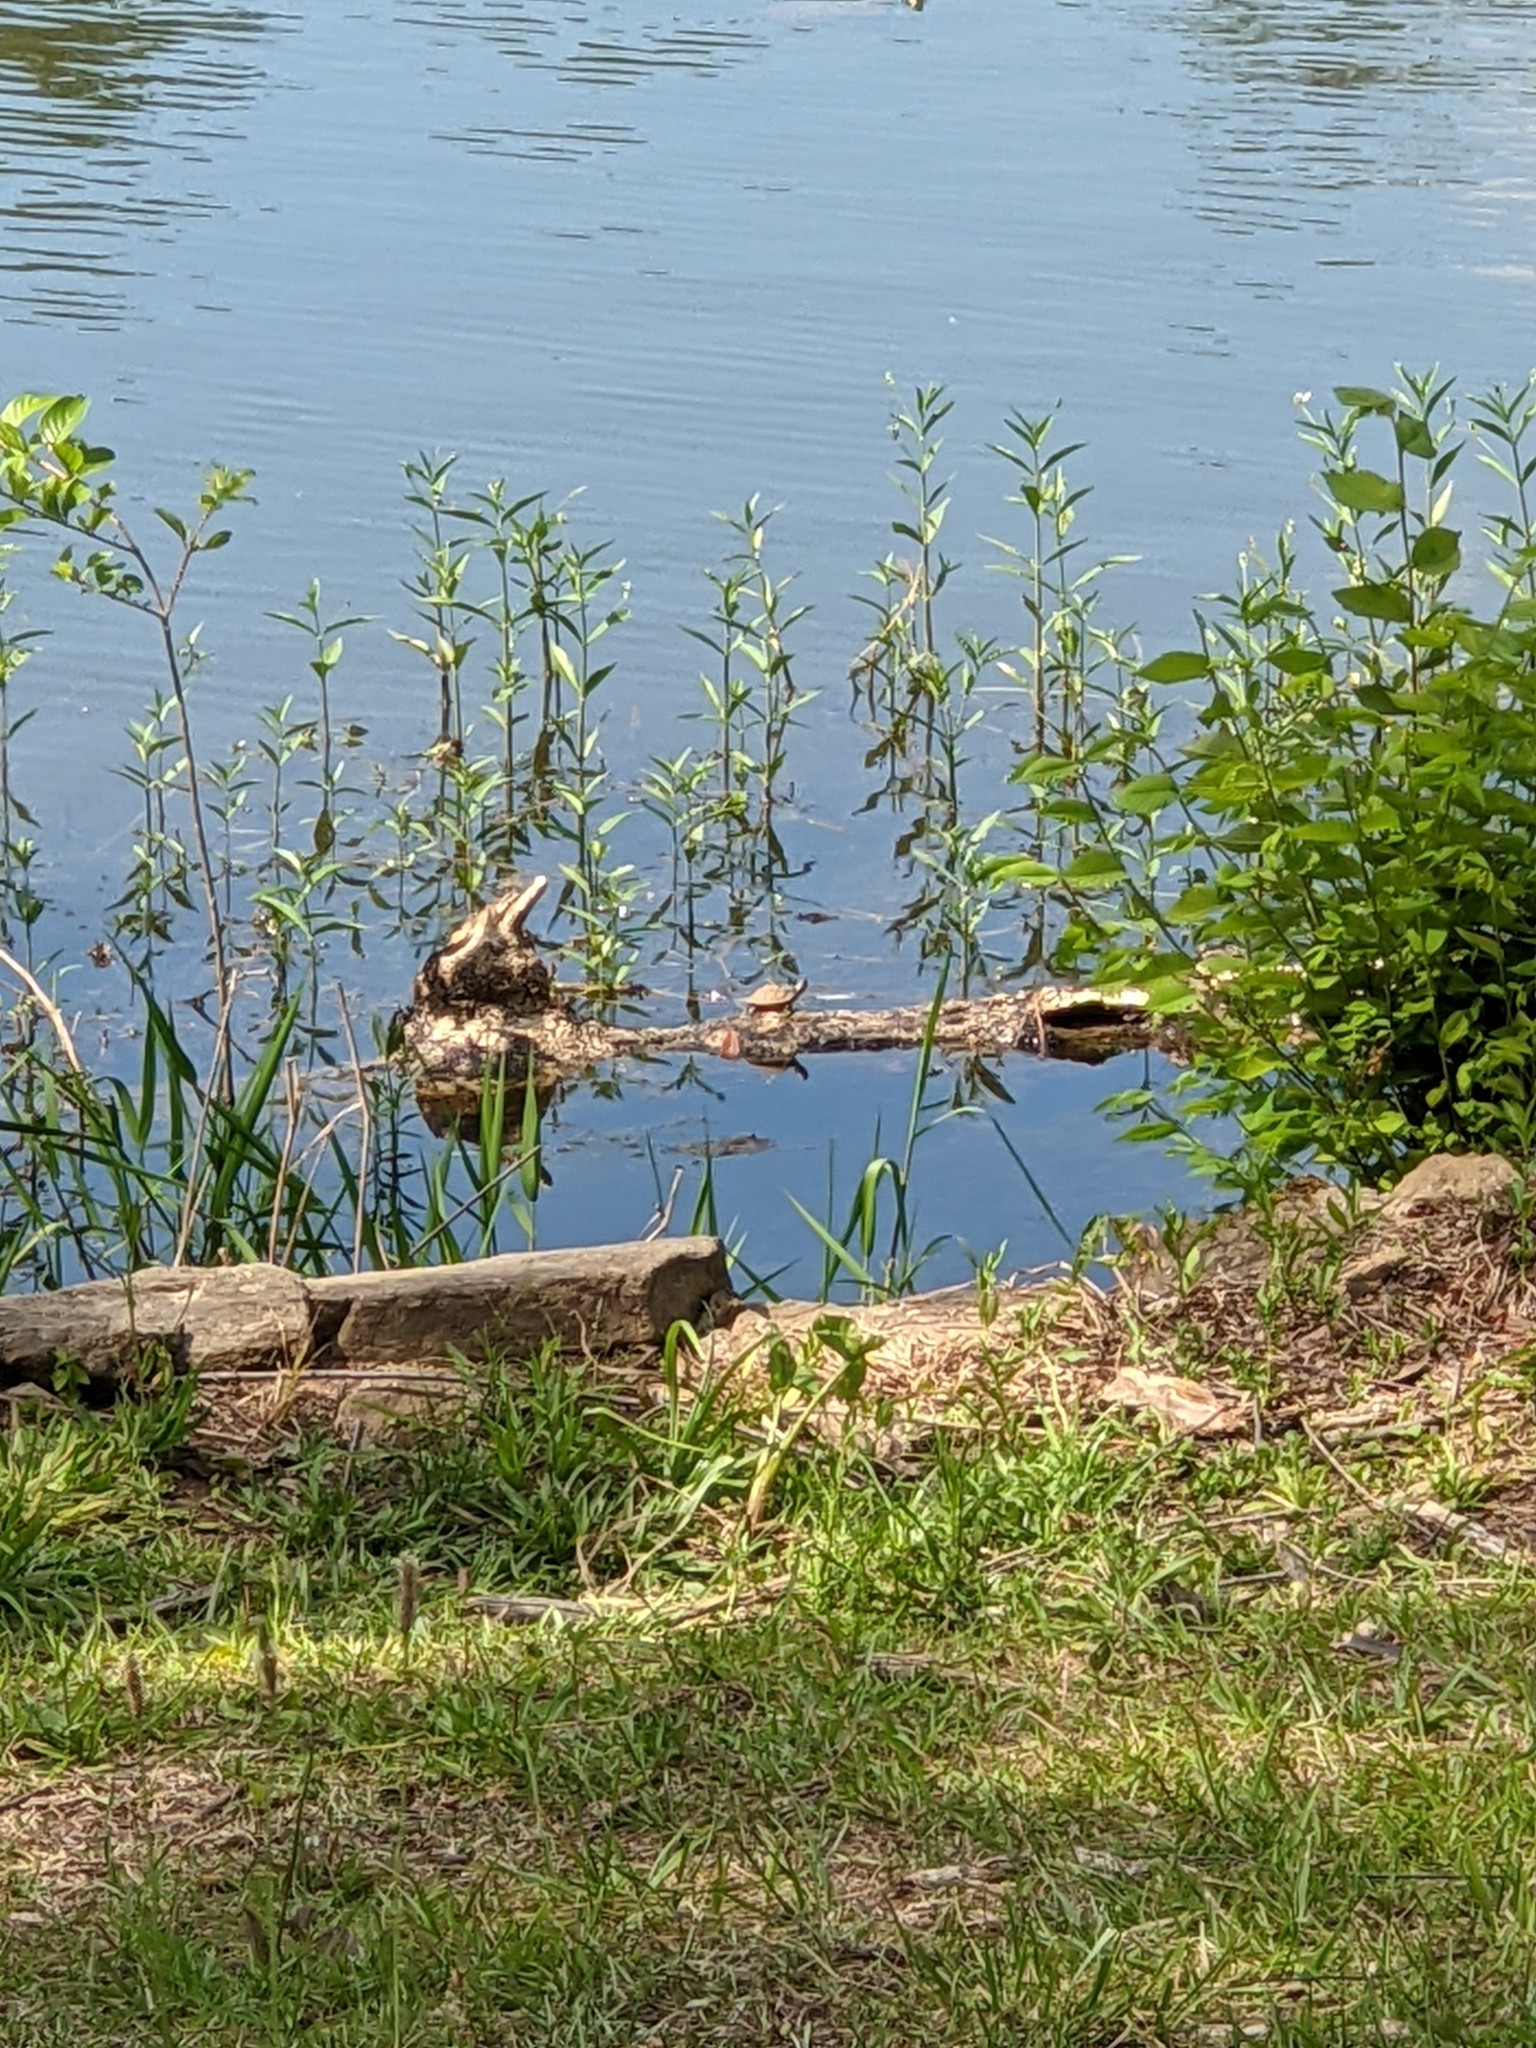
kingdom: Animalia
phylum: Chordata
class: Testudines
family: Emydidae
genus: Trachemys
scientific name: Trachemys scripta
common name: Slider
